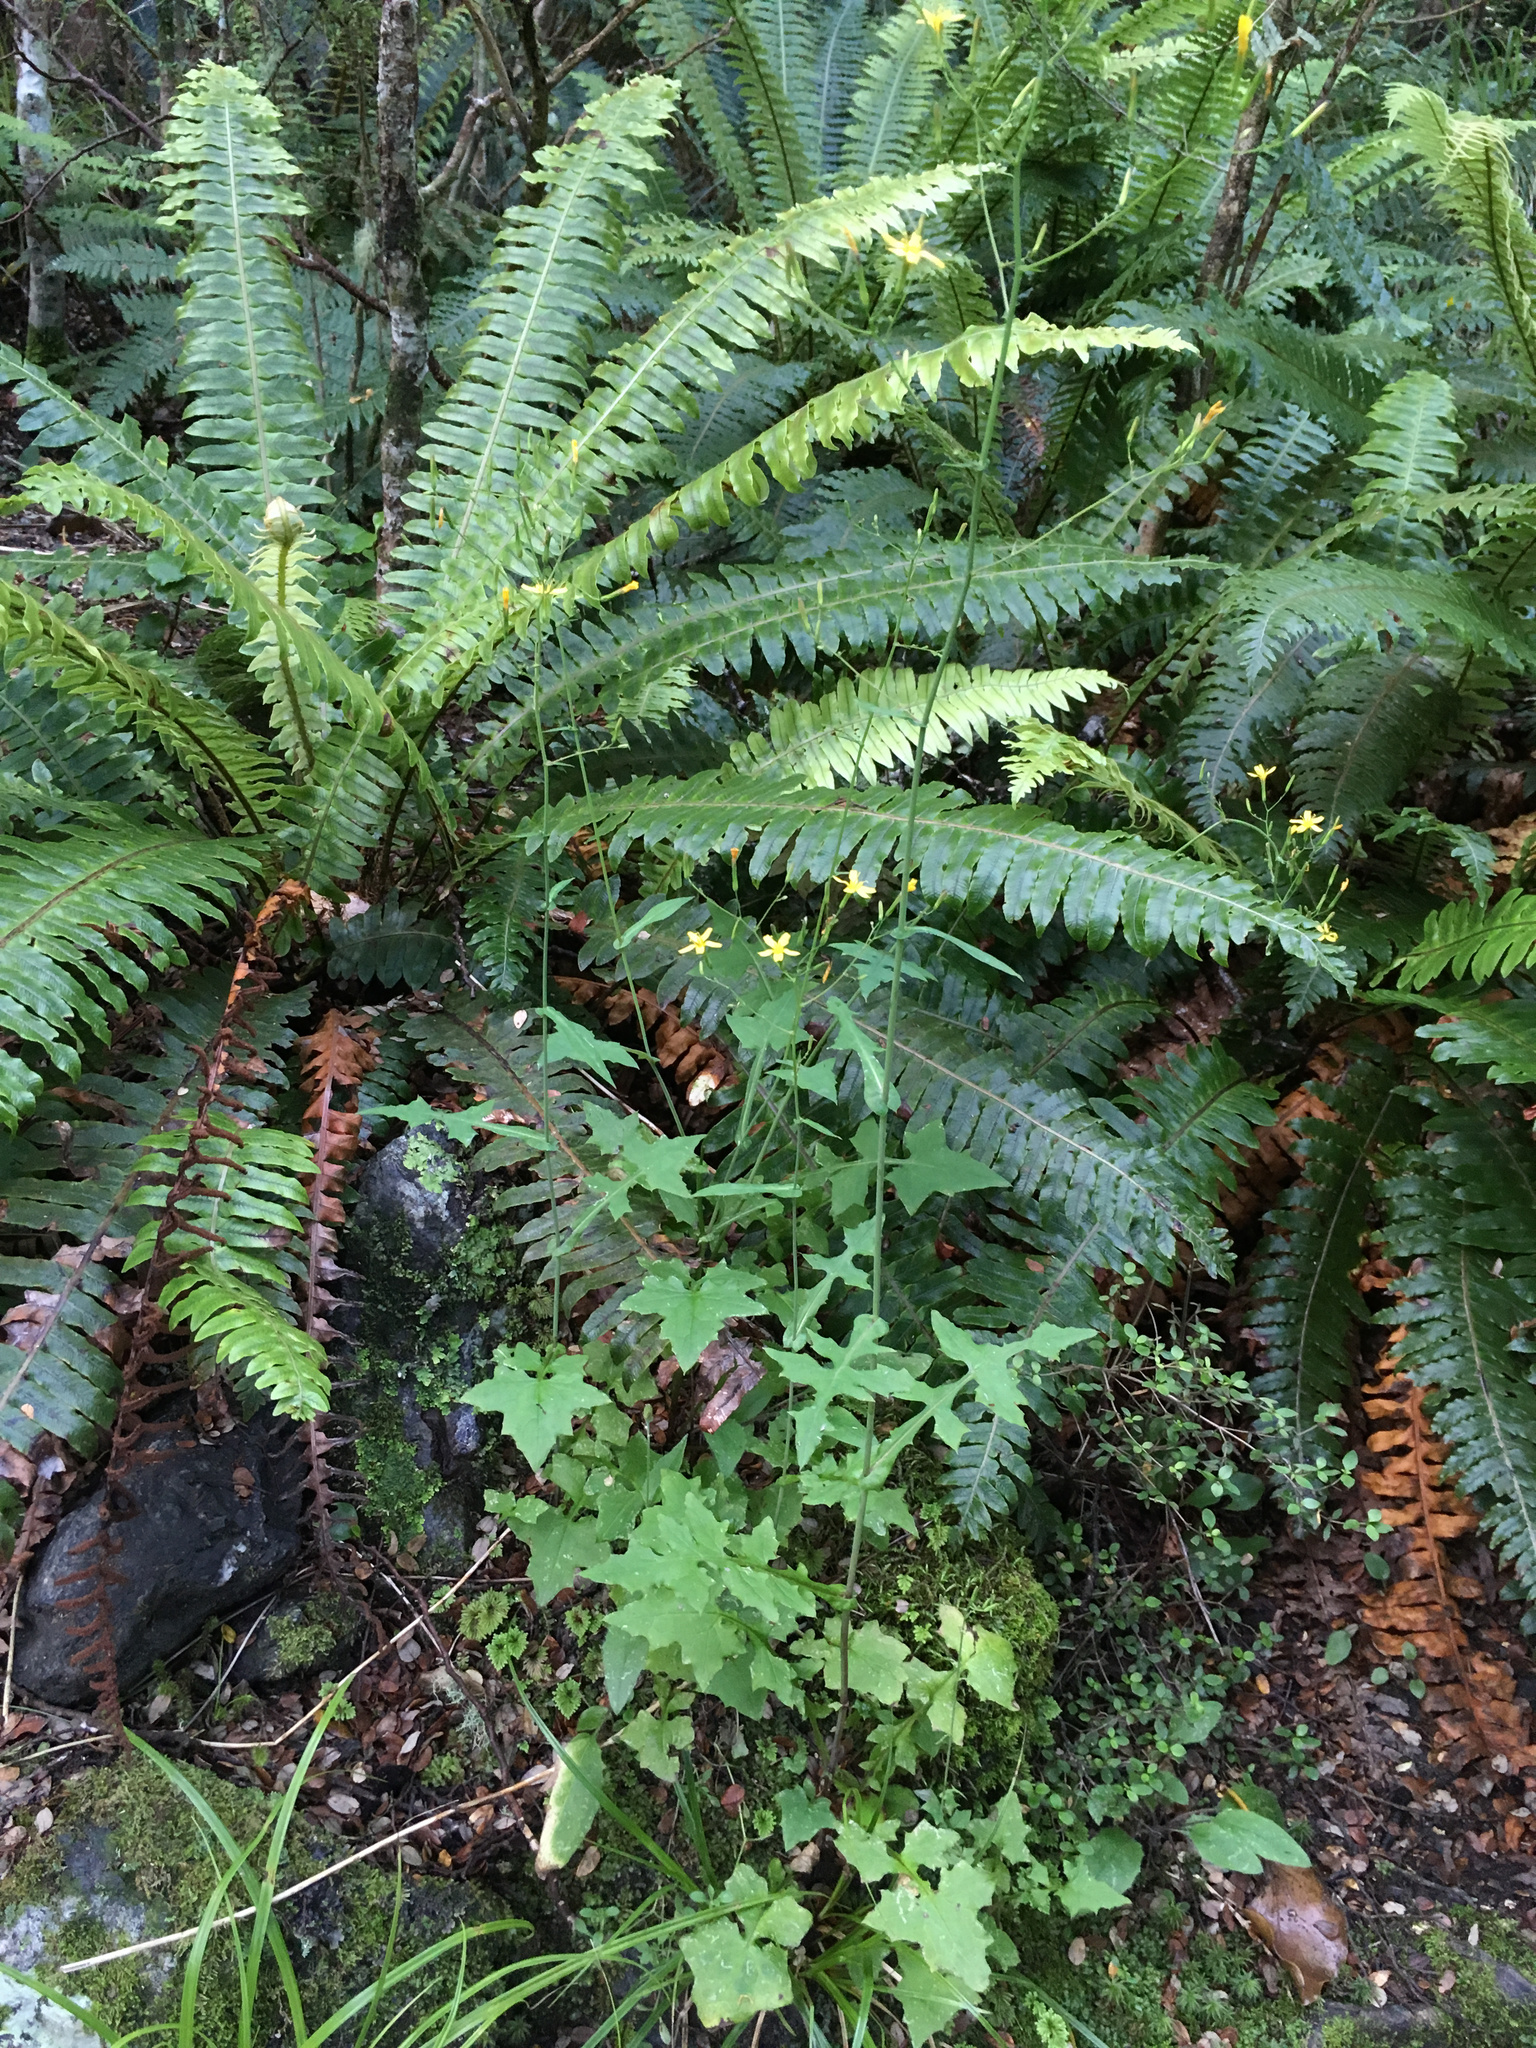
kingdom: Plantae
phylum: Tracheophyta
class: Magnoliopsida
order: Asterales
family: Asteraceae
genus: Mycelis
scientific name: Mycelis muralis
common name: Wall lettuce
